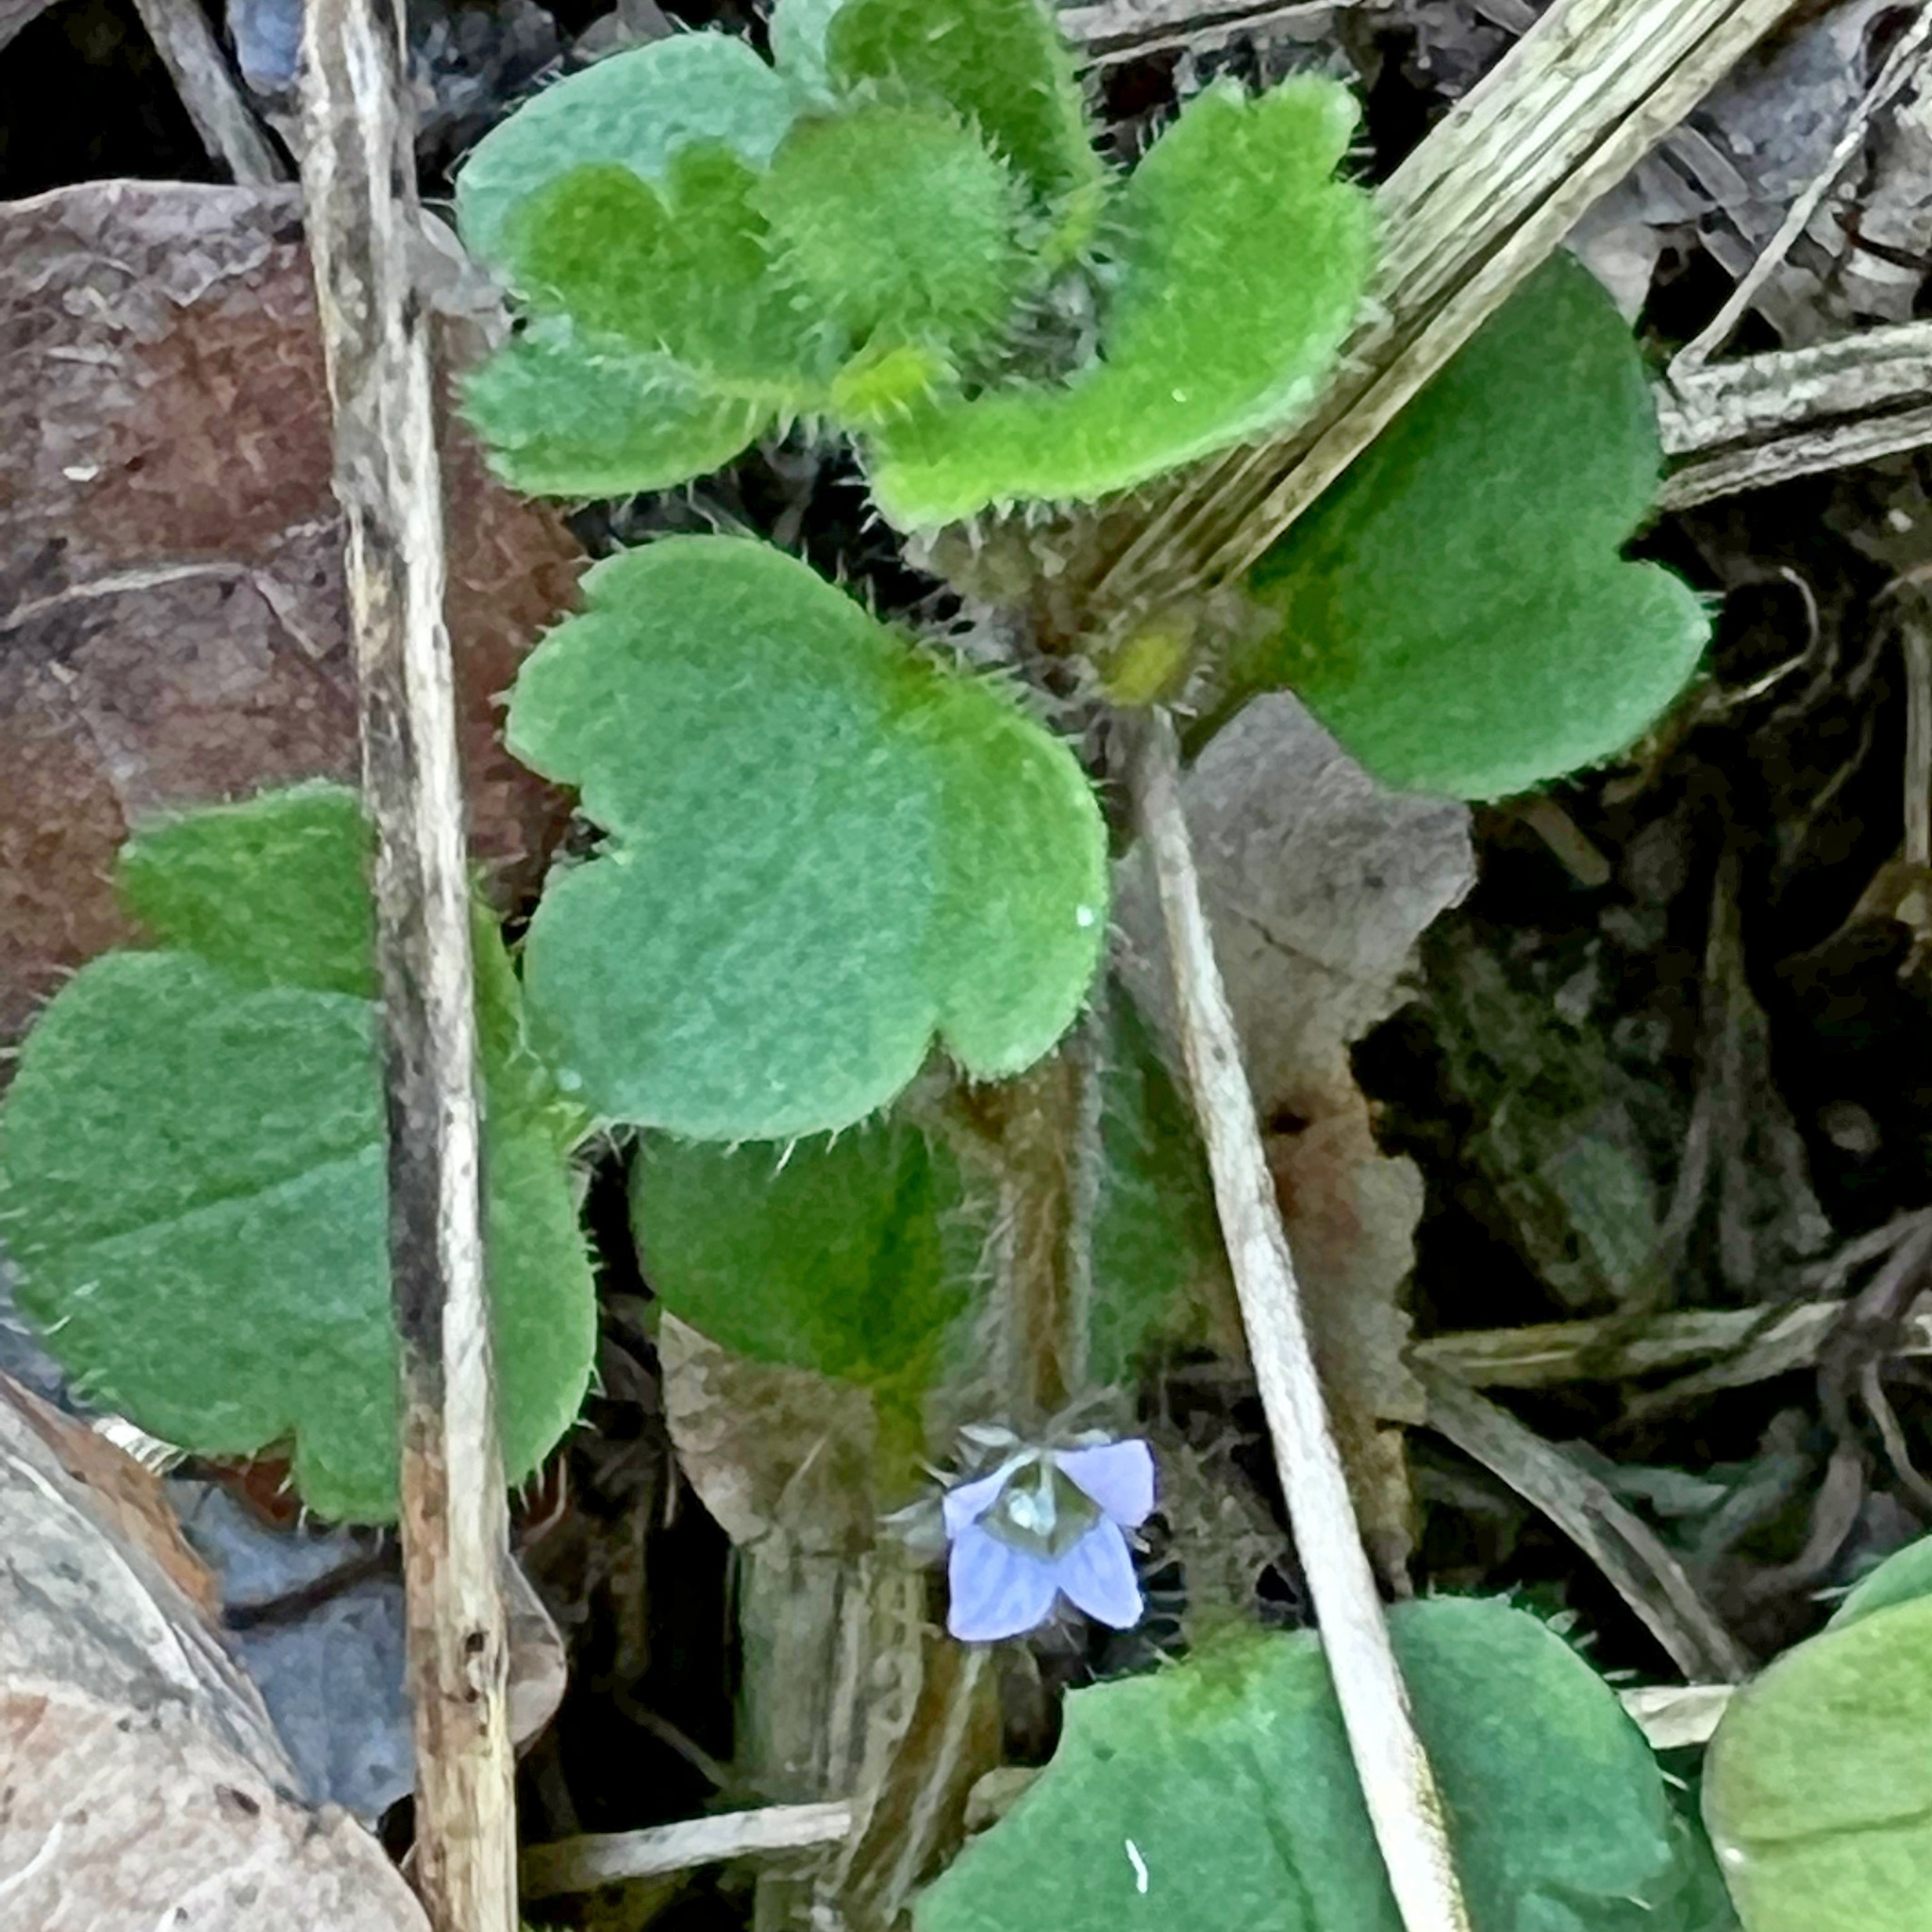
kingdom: Plantae
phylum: Tracheophyta
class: Magnoliopsida
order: Lamiales
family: Plantaginaceae
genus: Veronica
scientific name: Veronica sublobata
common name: False ivy-leaved speedwell
